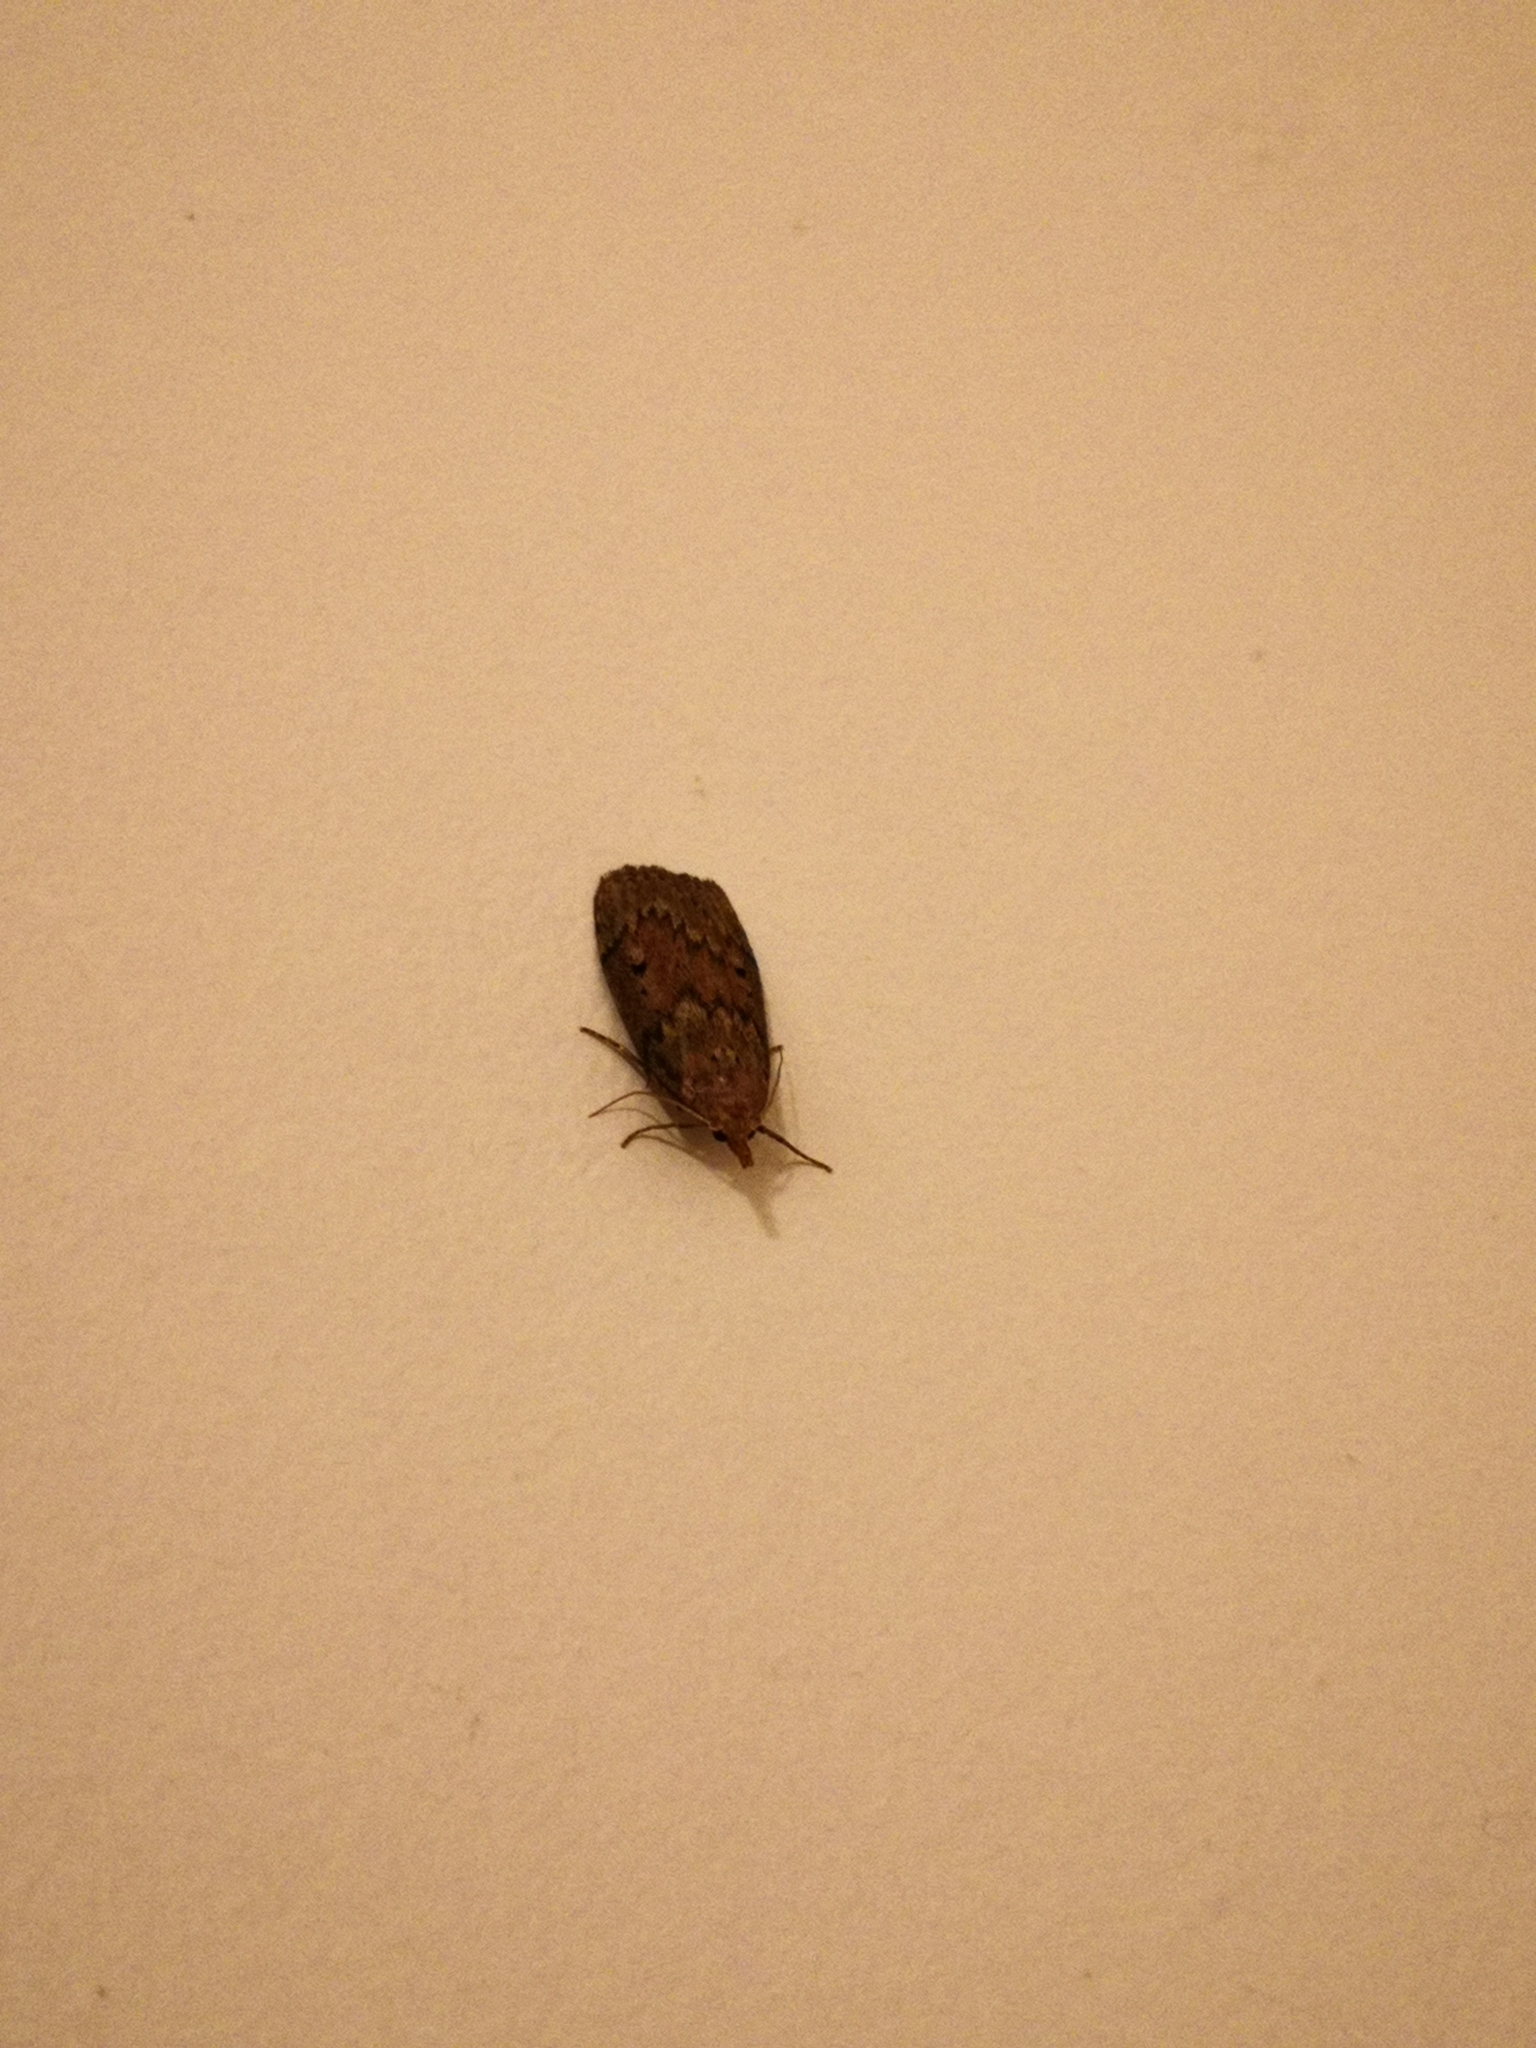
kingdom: Animalia
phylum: Arthropoda
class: Insecta
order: Lepidoptera
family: Pyralidae
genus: Aphomia
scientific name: Aphomia sociella
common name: Bee moth
